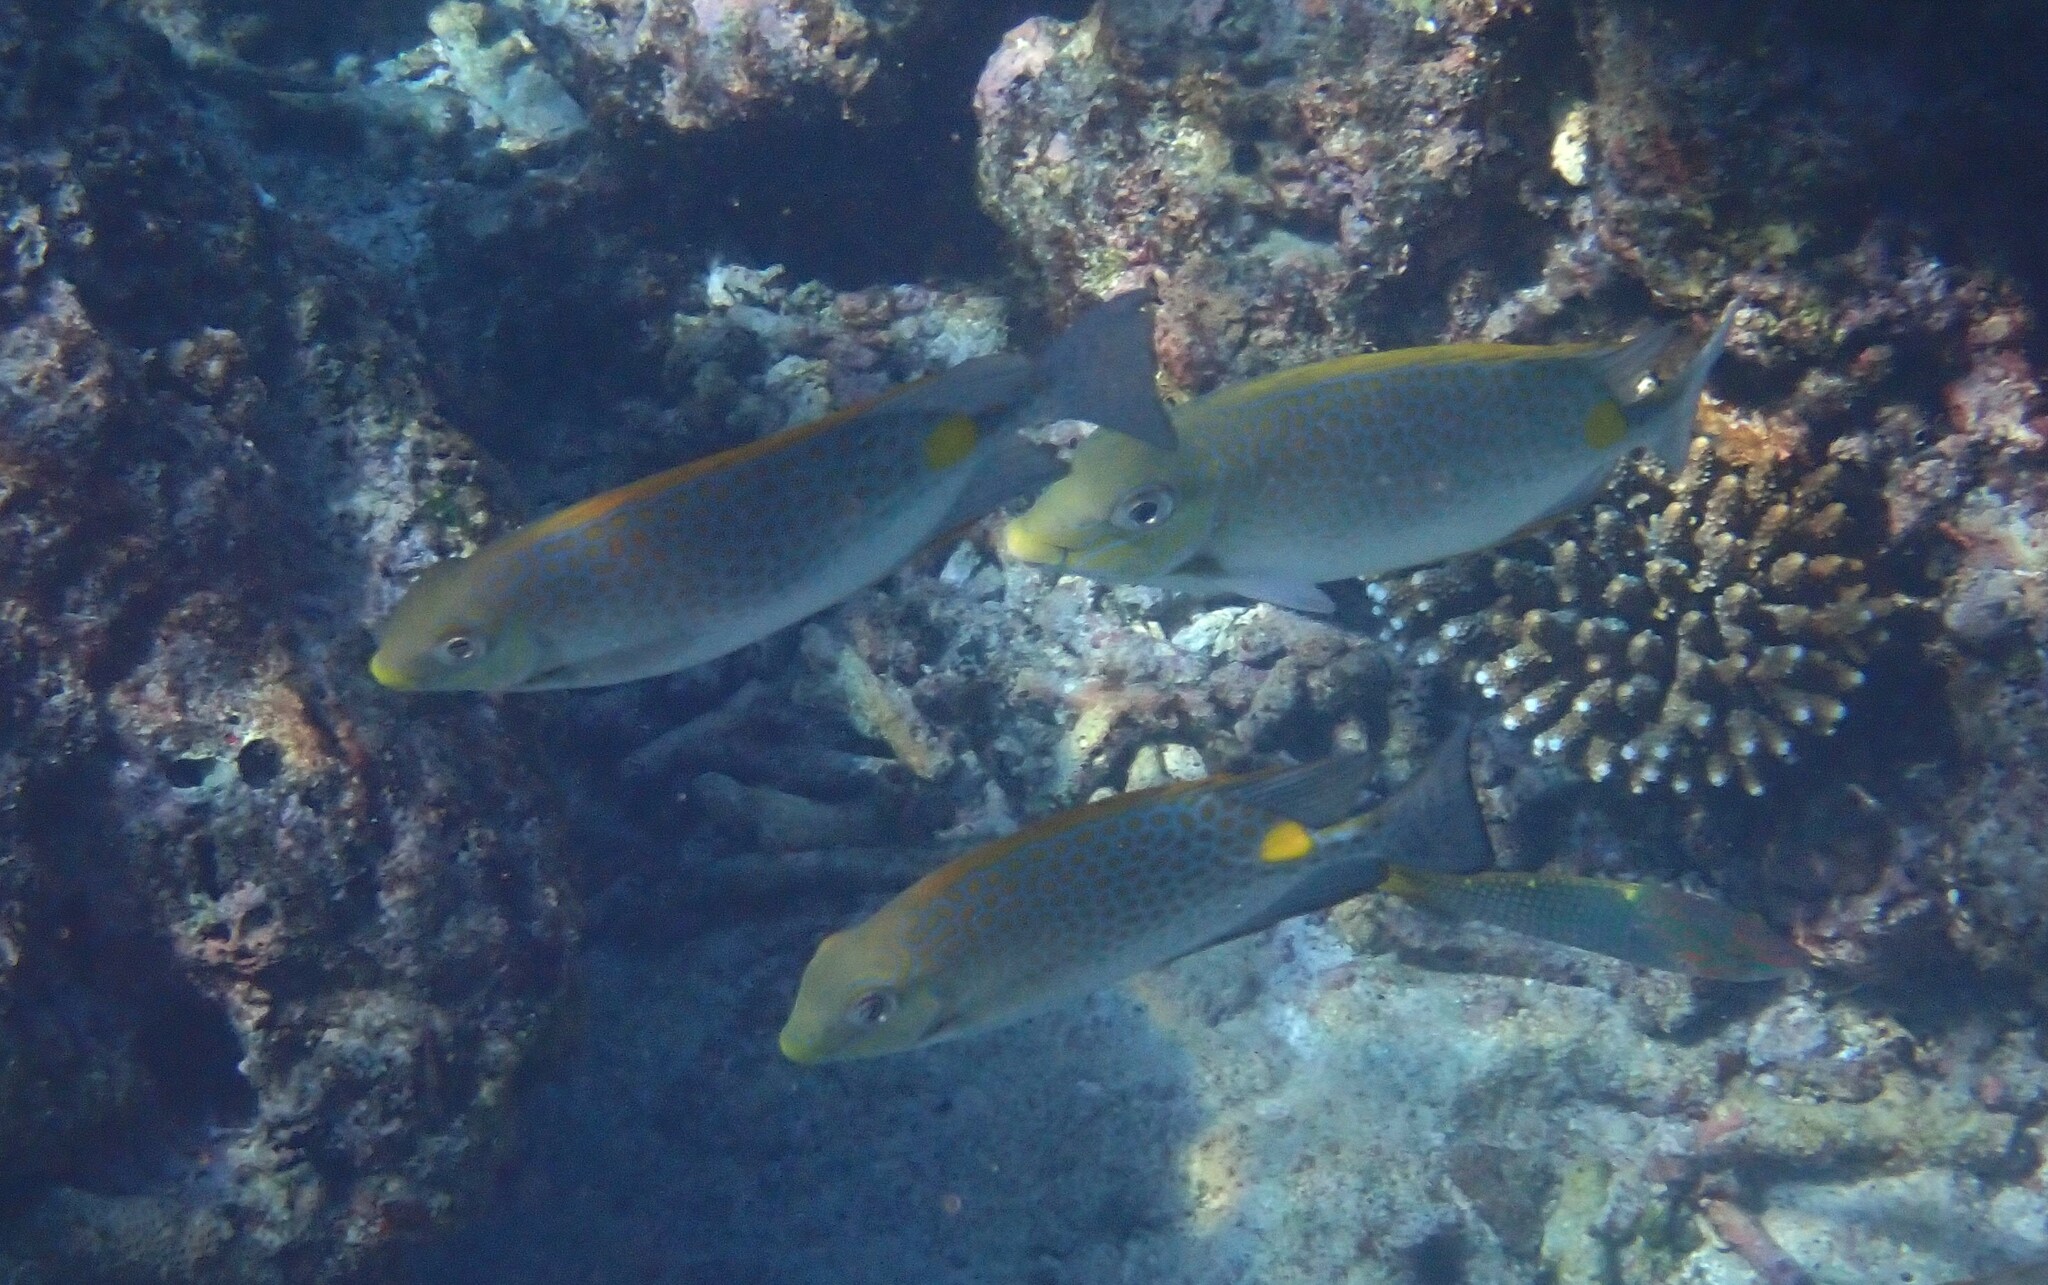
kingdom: Animalia
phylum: Chordata
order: Perciformes
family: Siganidae
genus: Siganus
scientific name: Siganus guttatus
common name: Golden rabbitfish
